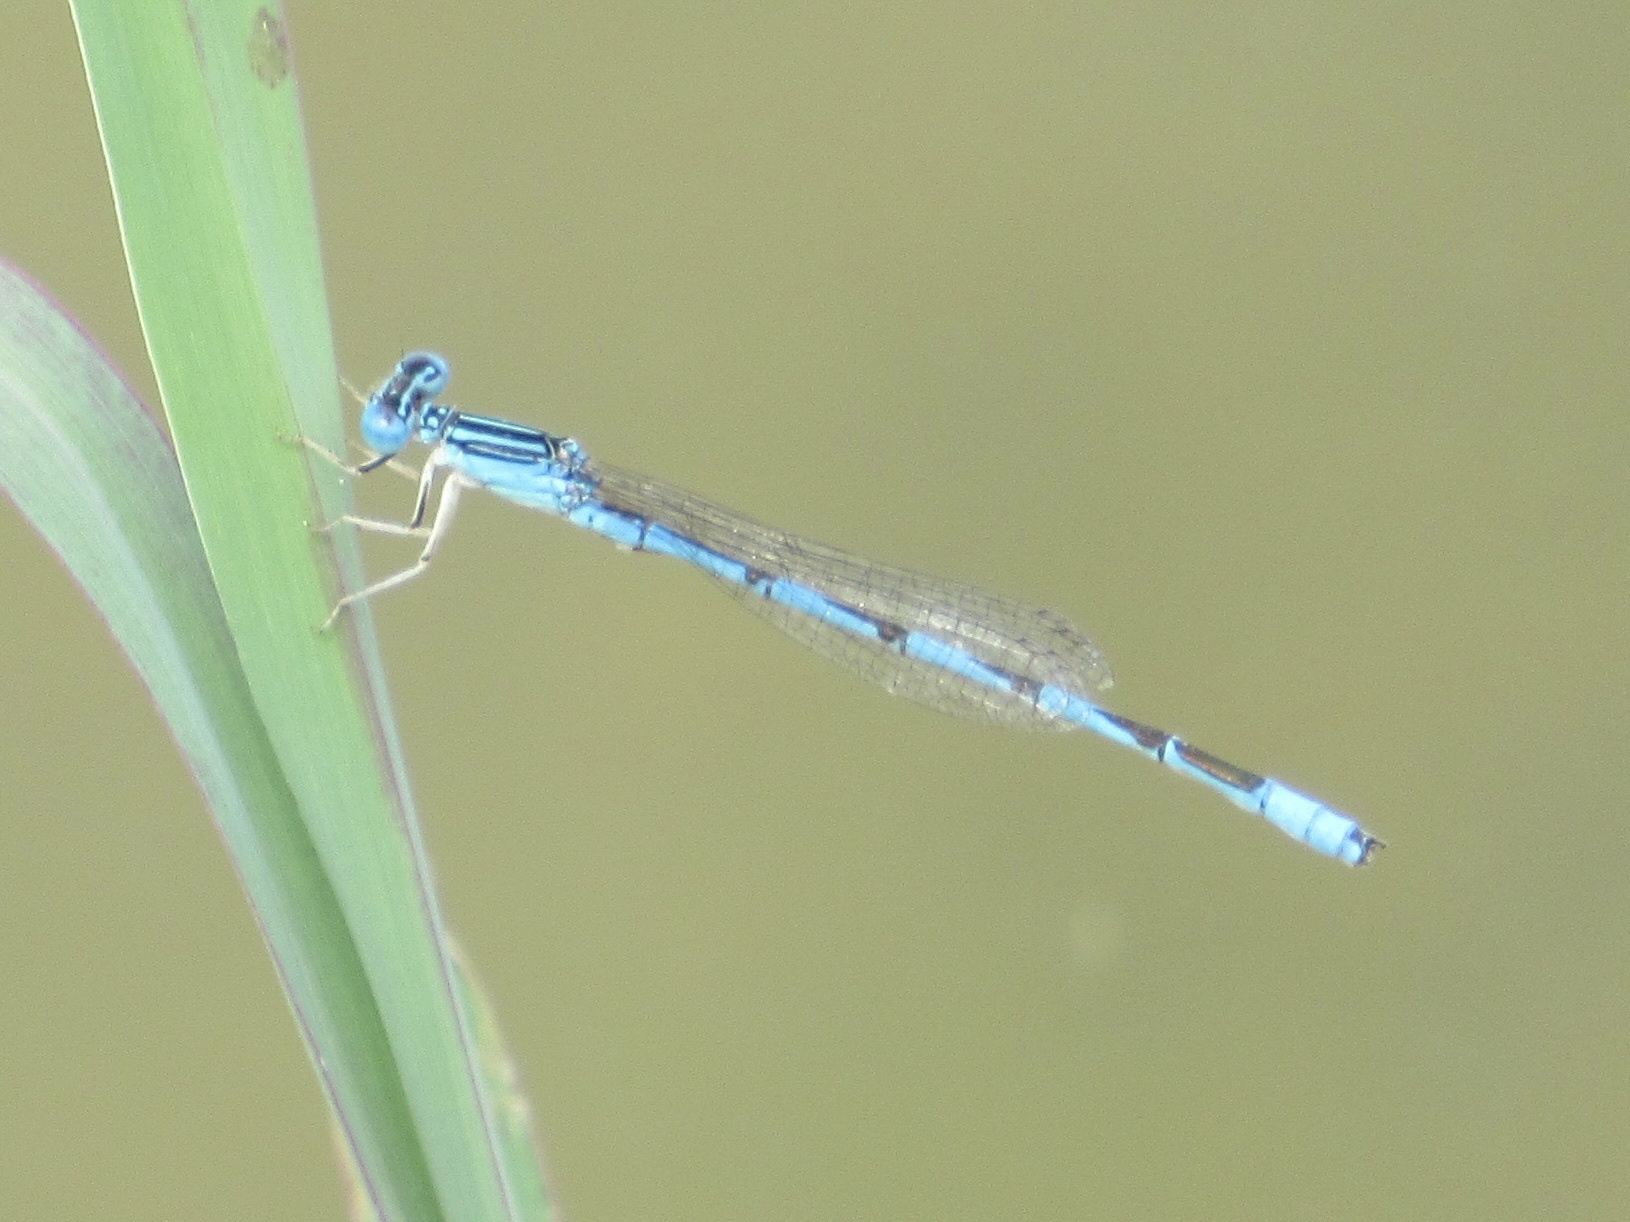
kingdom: Animalia
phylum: Arthropoda
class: Insecta
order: Odonata
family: Coenagrionidae
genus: Enallagma
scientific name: Enallagma basidens
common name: Double-striped bluet
